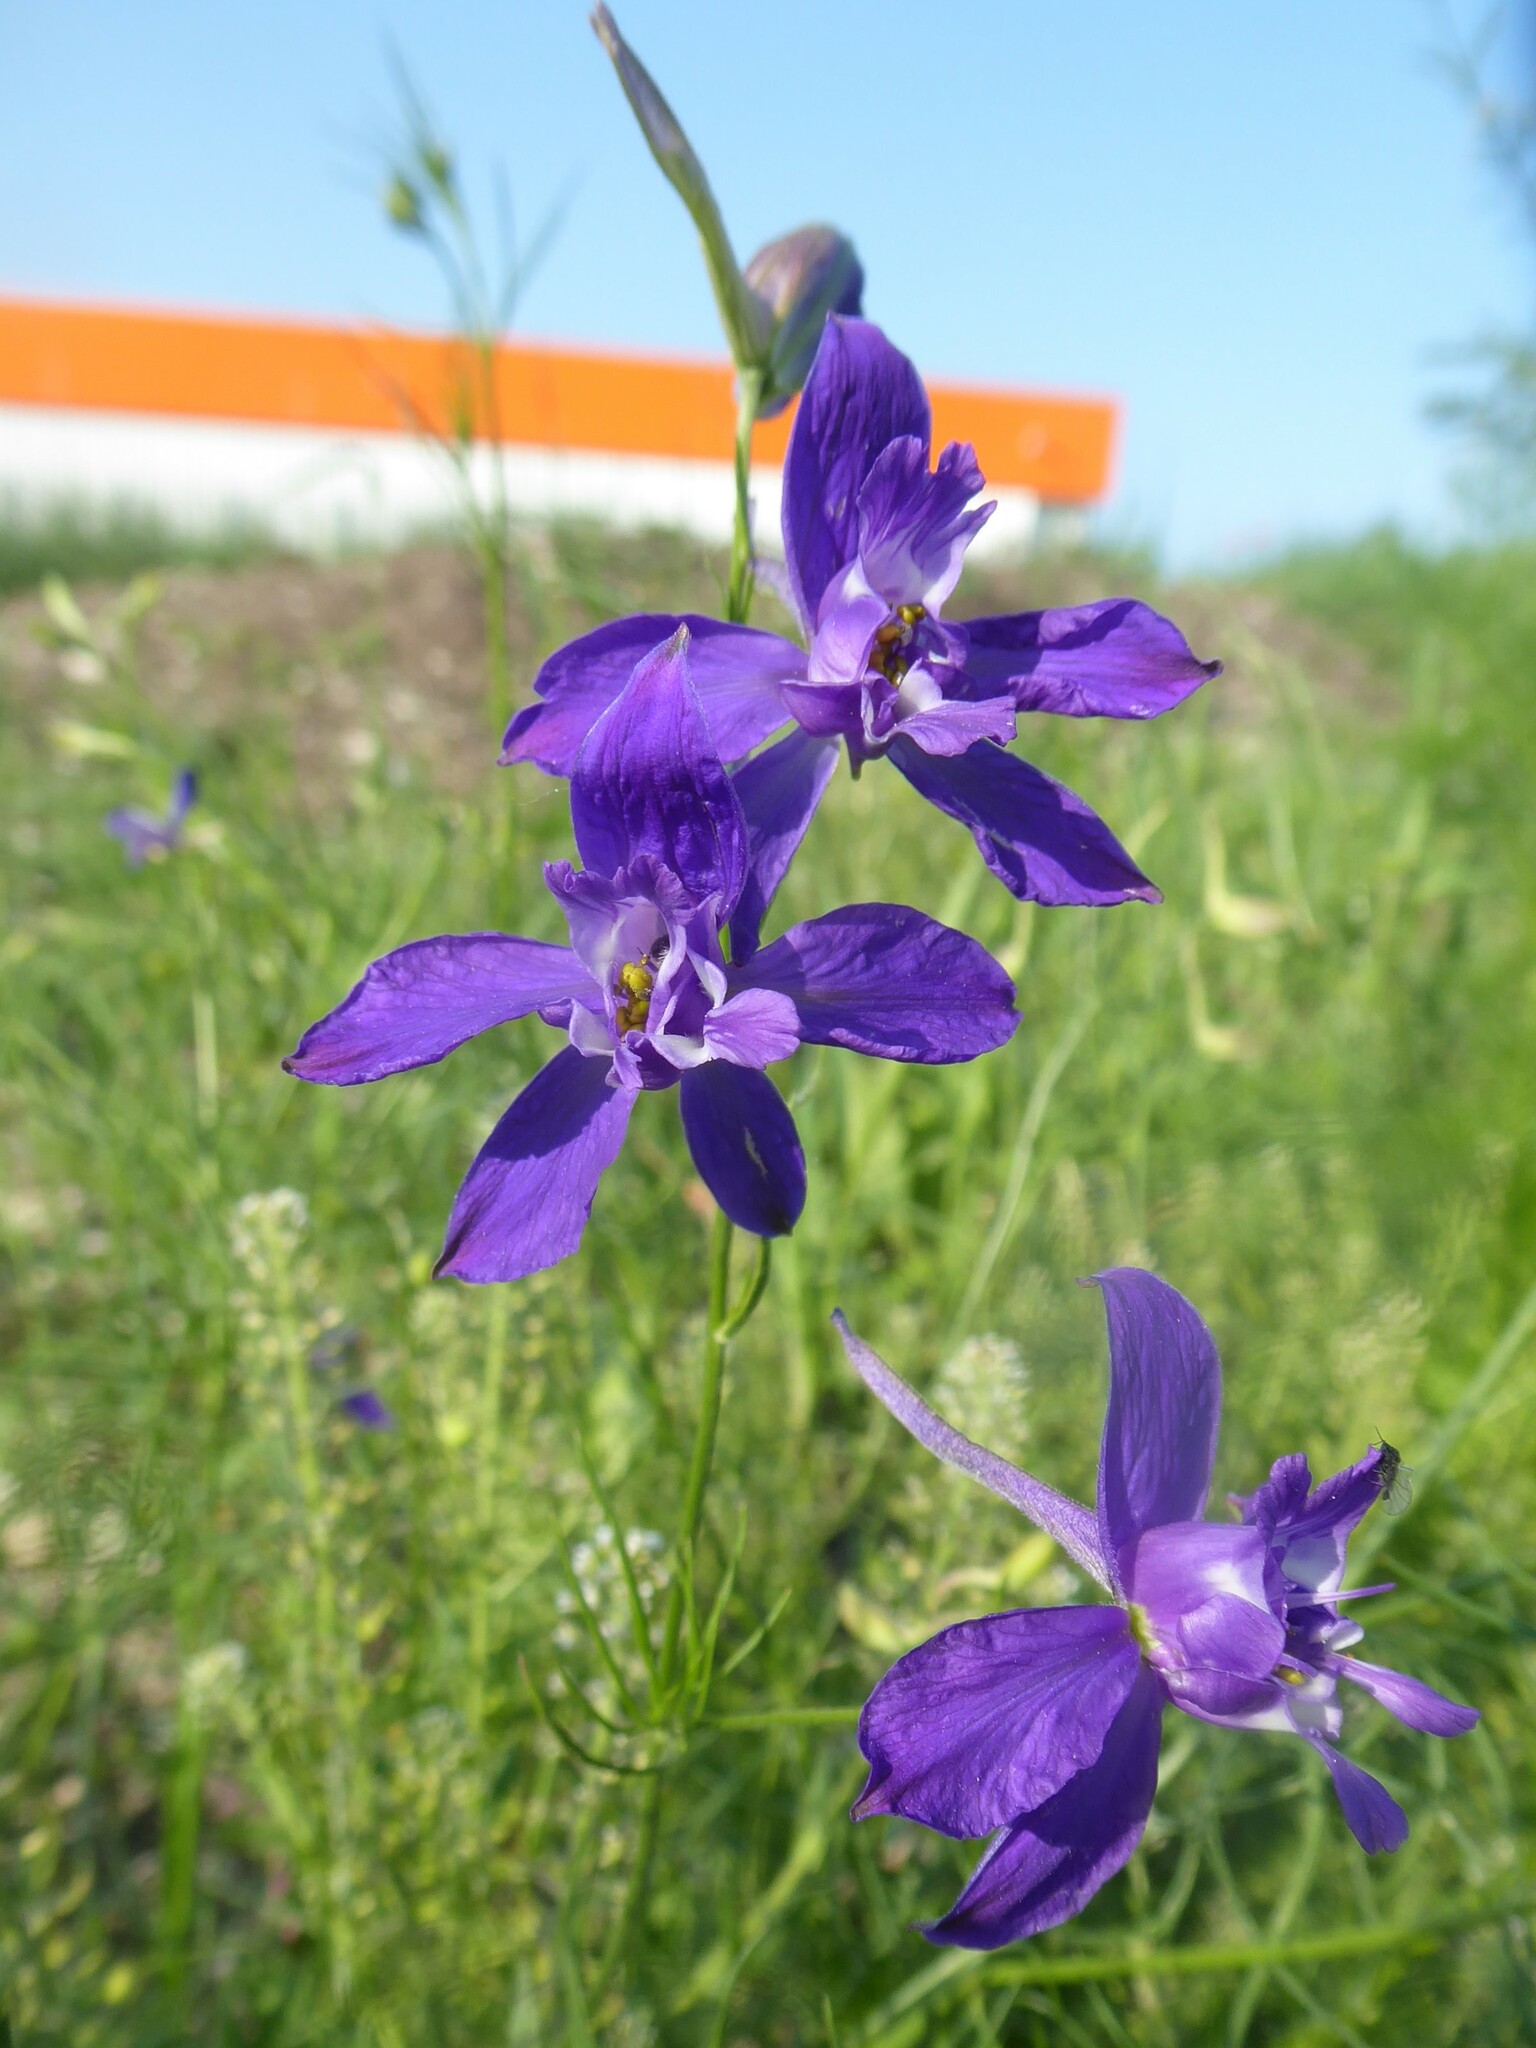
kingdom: Plantae
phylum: Tracheophyta
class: Magnoliopsida
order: Ranunculales
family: Ranunculaceae
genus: Delphinium
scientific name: Delphinium consolida
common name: Branching larkspur
